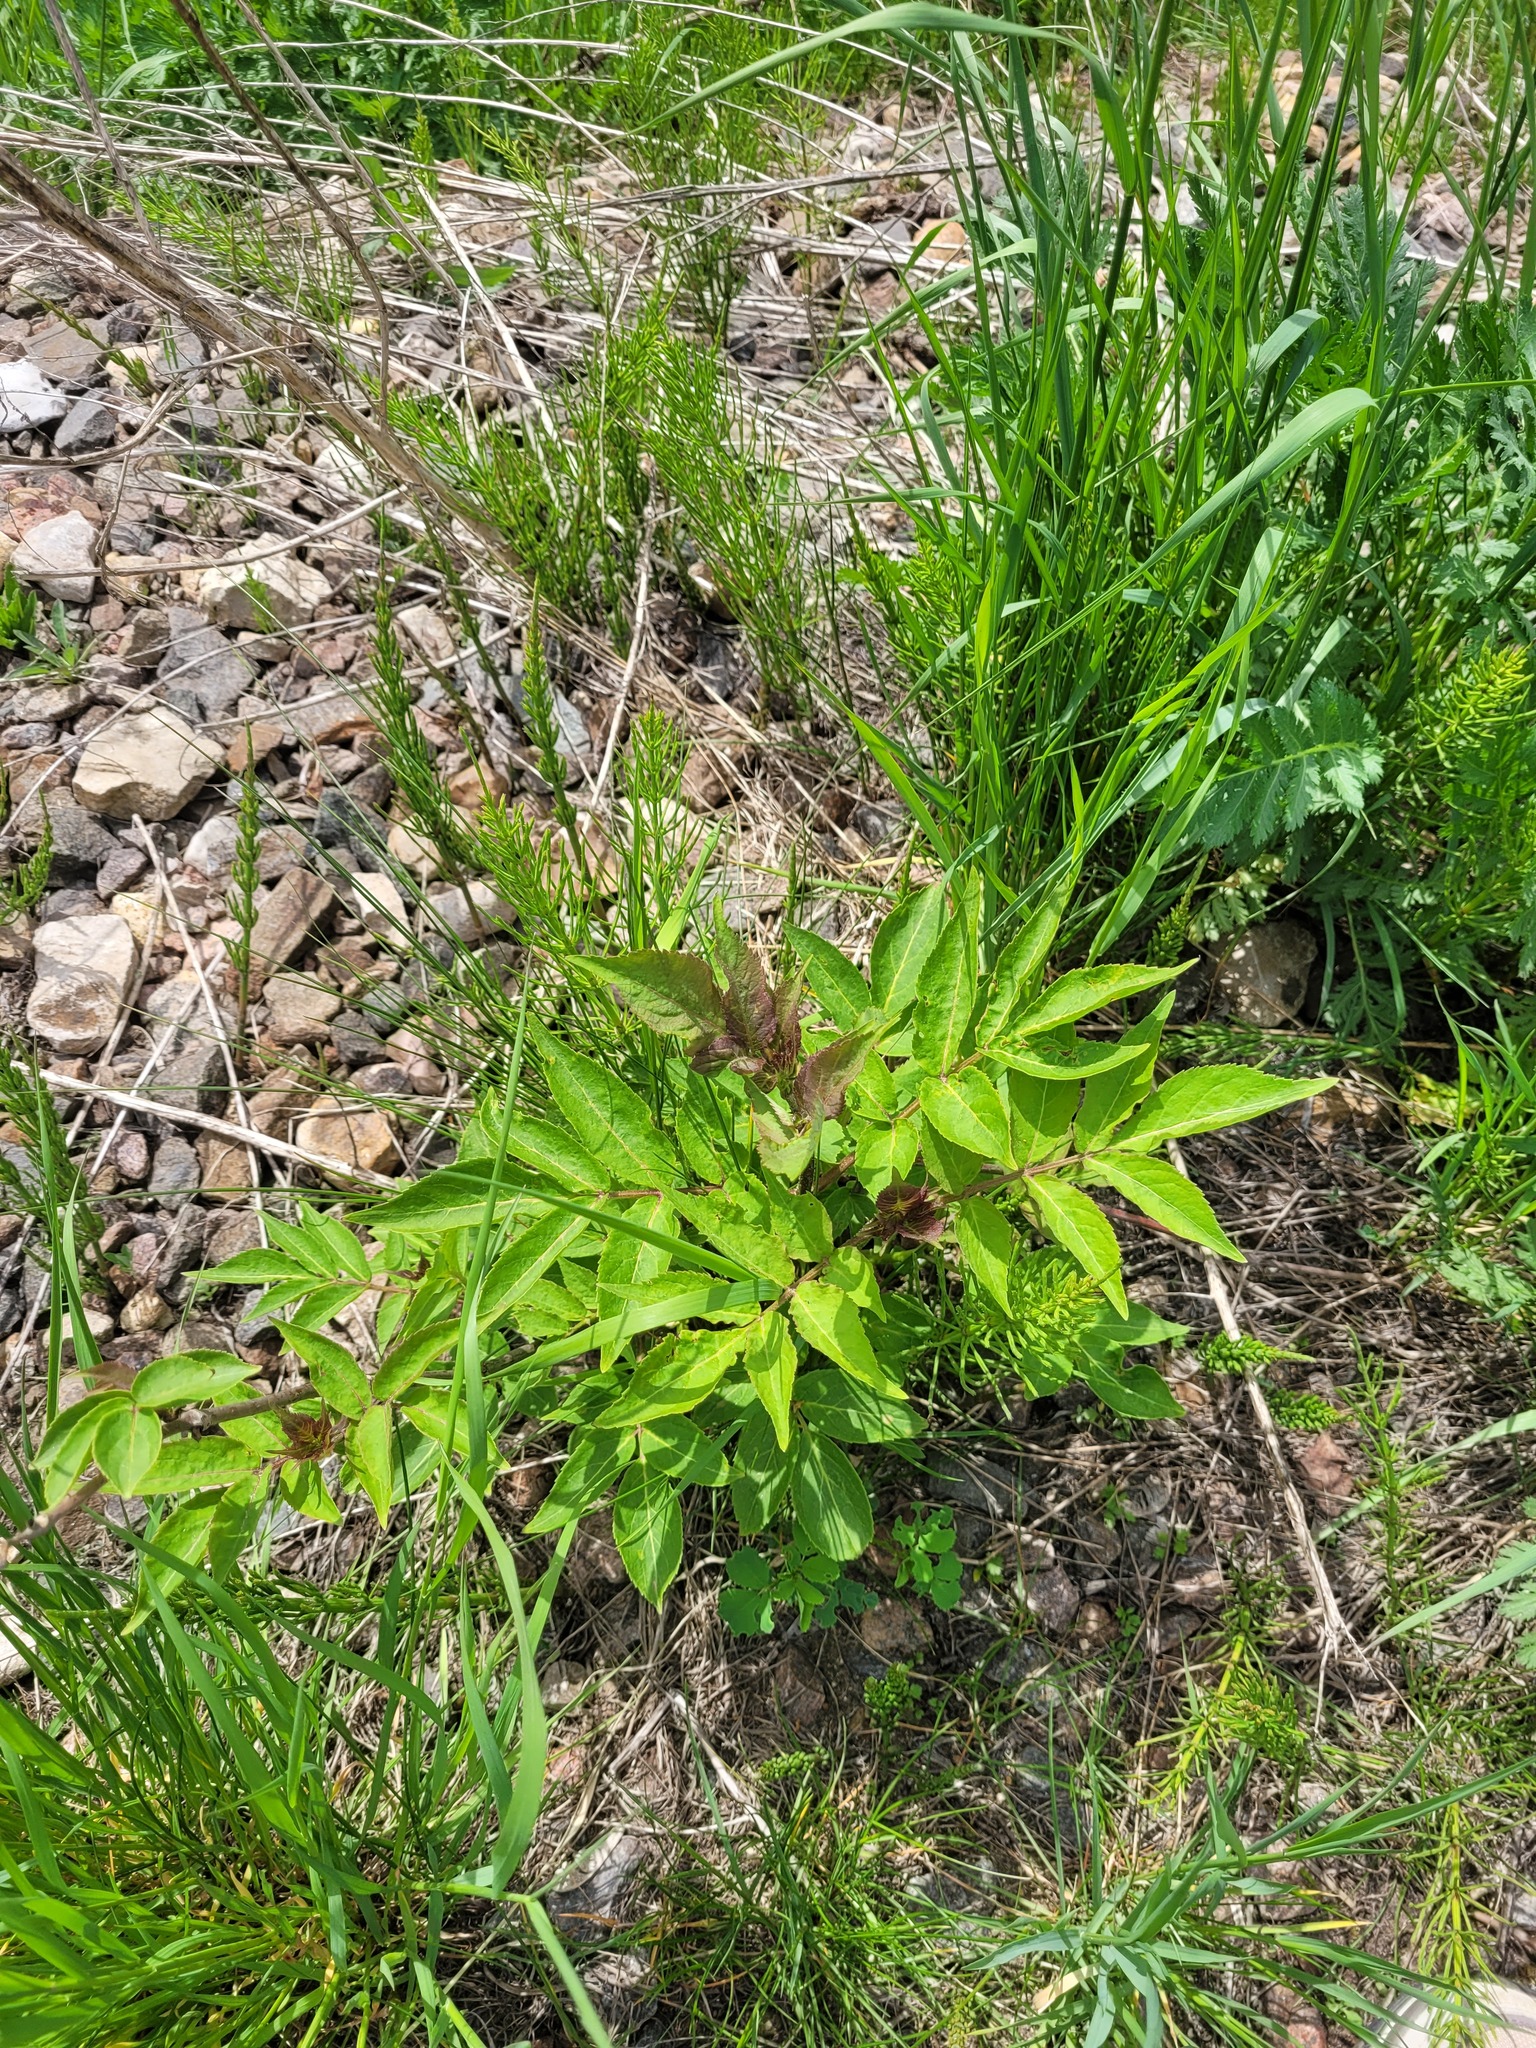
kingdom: Plantae
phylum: Tracheophyta
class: Magnoliopsida
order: Dipsacales
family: Viburnaceae
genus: Sambucus
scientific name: Sambucus racemosa
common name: Red-berried elder
